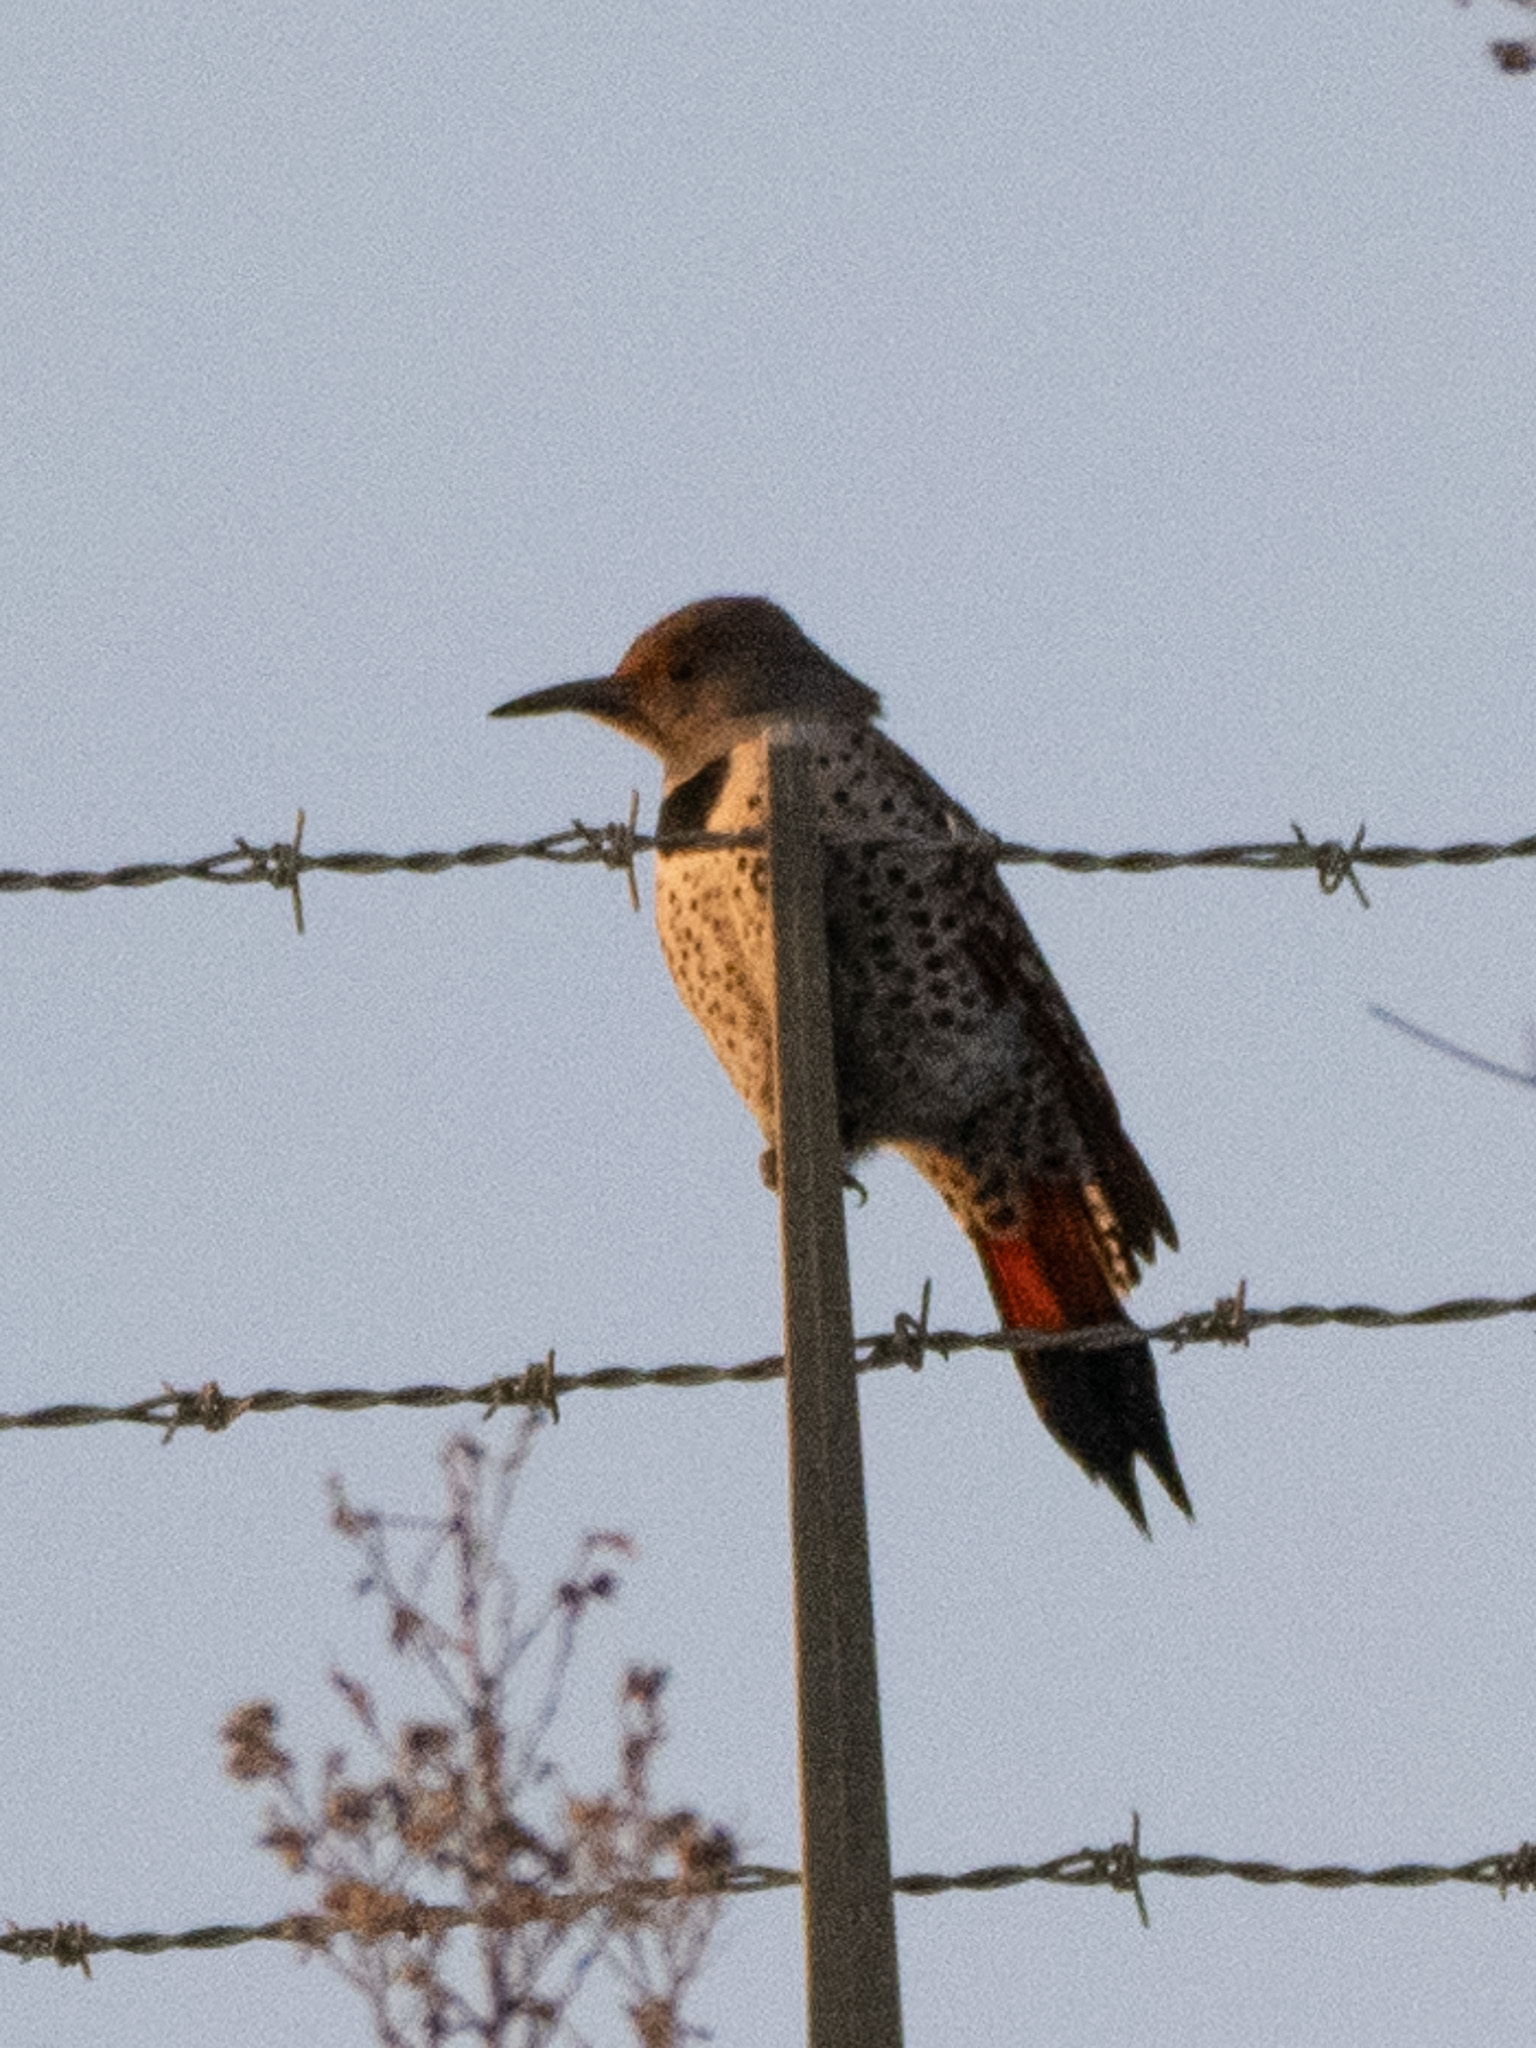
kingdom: Animalia
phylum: Chordata
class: Aves
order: Piciformes
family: Picidae
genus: Colaptes
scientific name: Colaptes auratus
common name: Northern flicker
